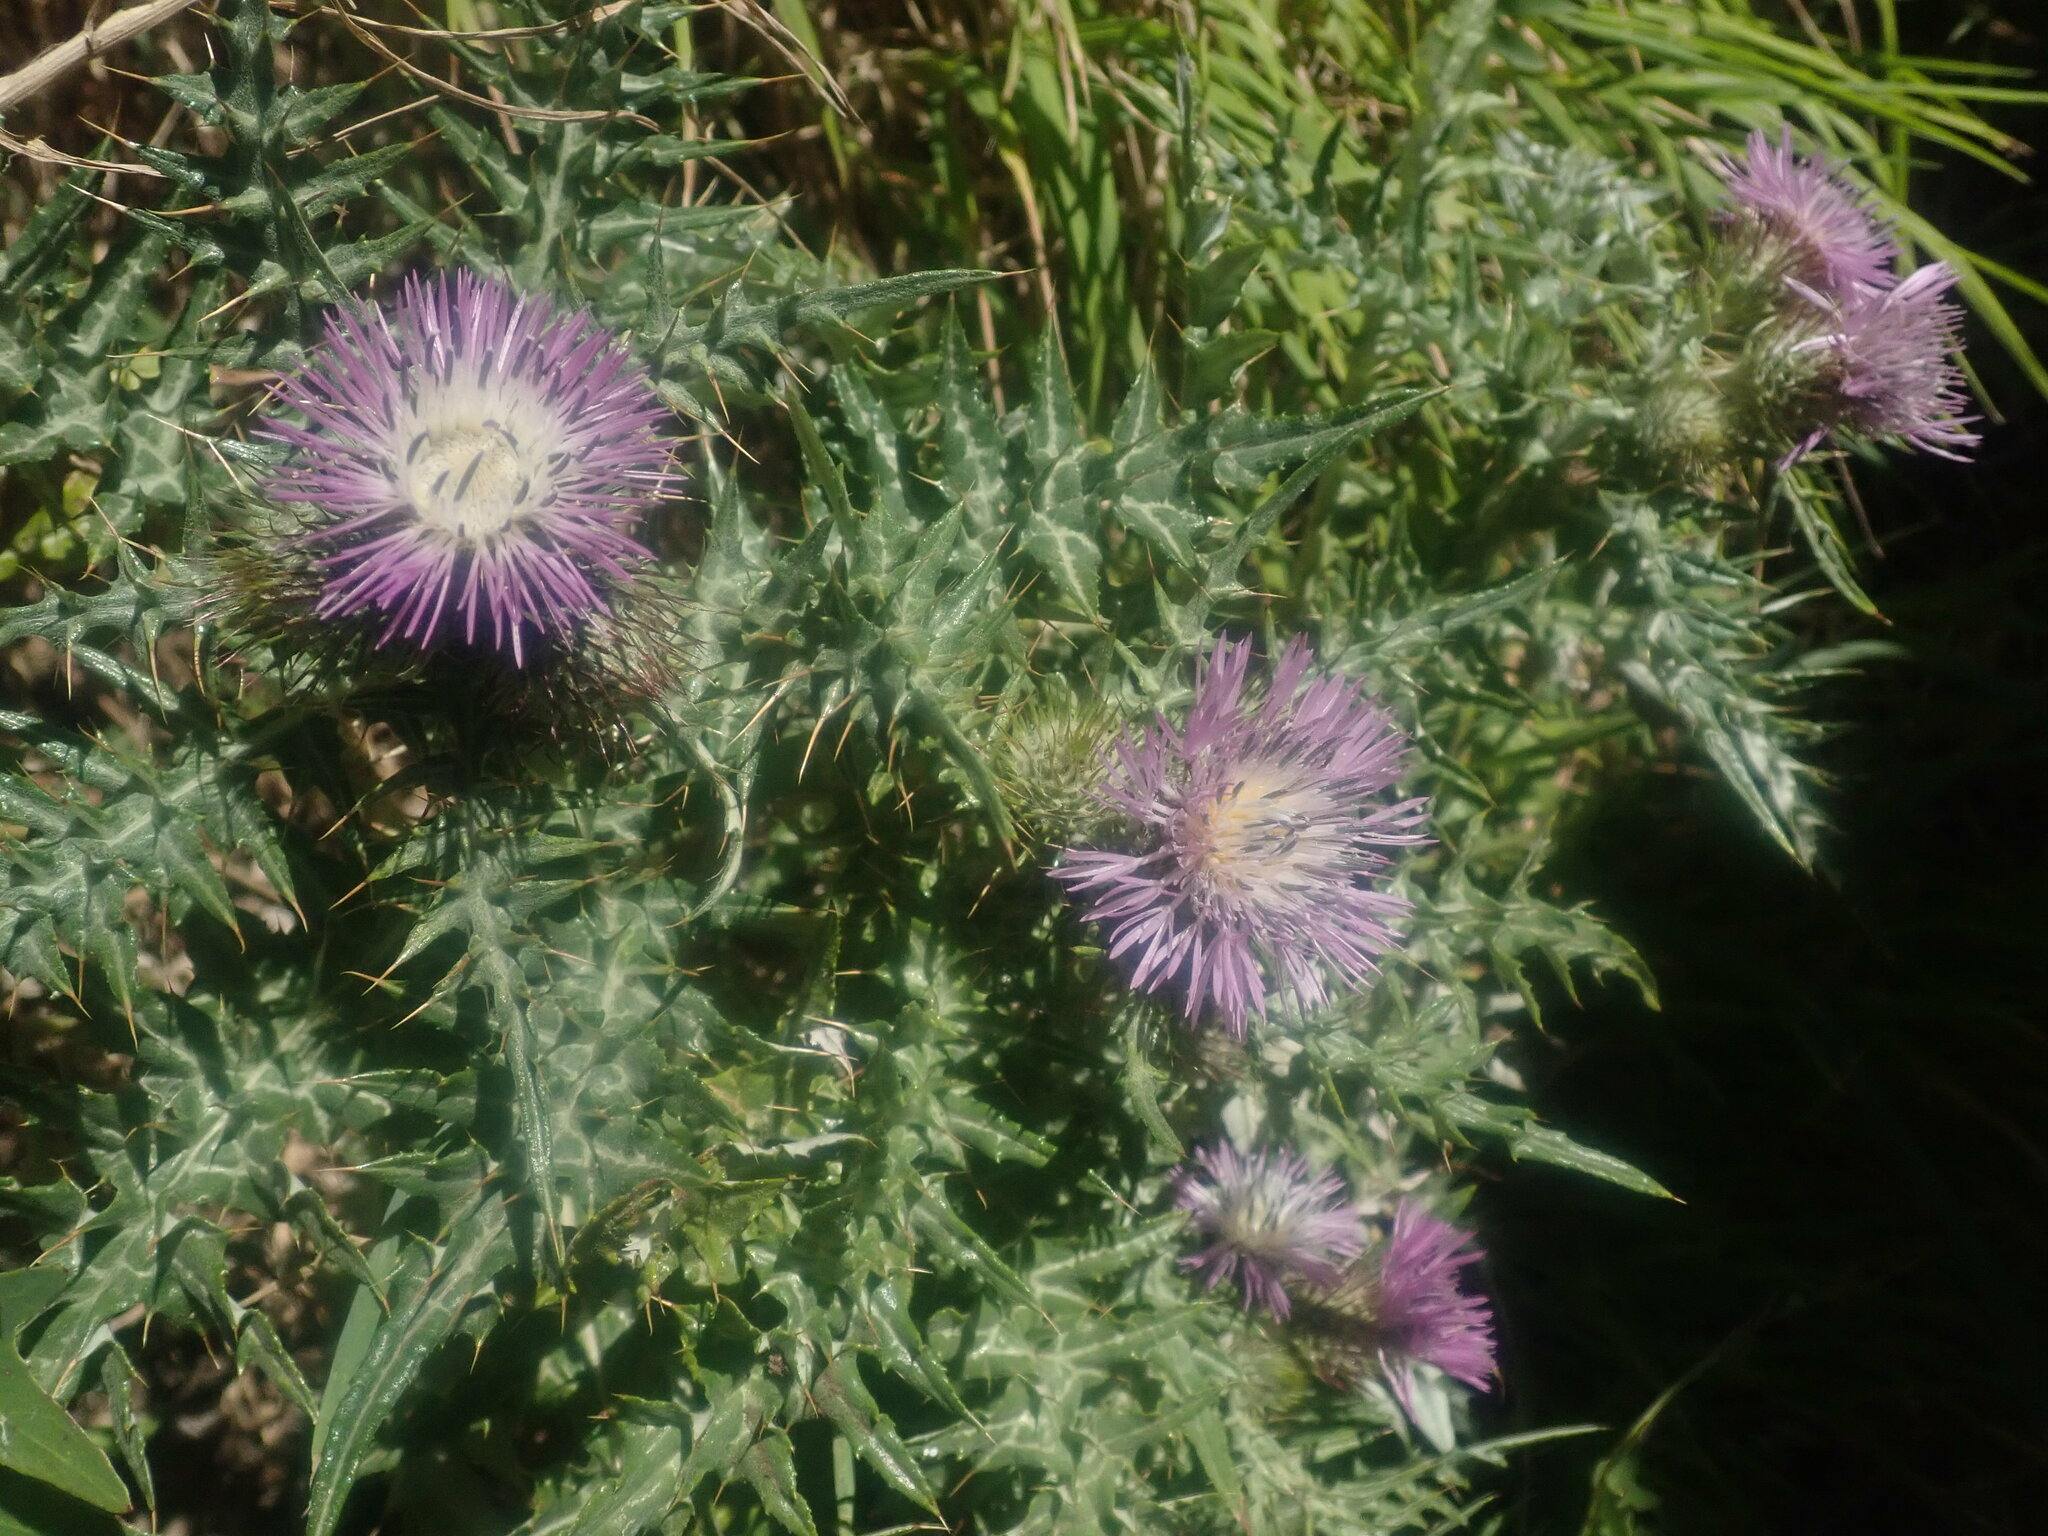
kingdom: Plantae
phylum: Tracheophyta
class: Magnoliopsida
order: Asterales
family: Asteraceae
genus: Galactites
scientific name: Galactites tomentosa
